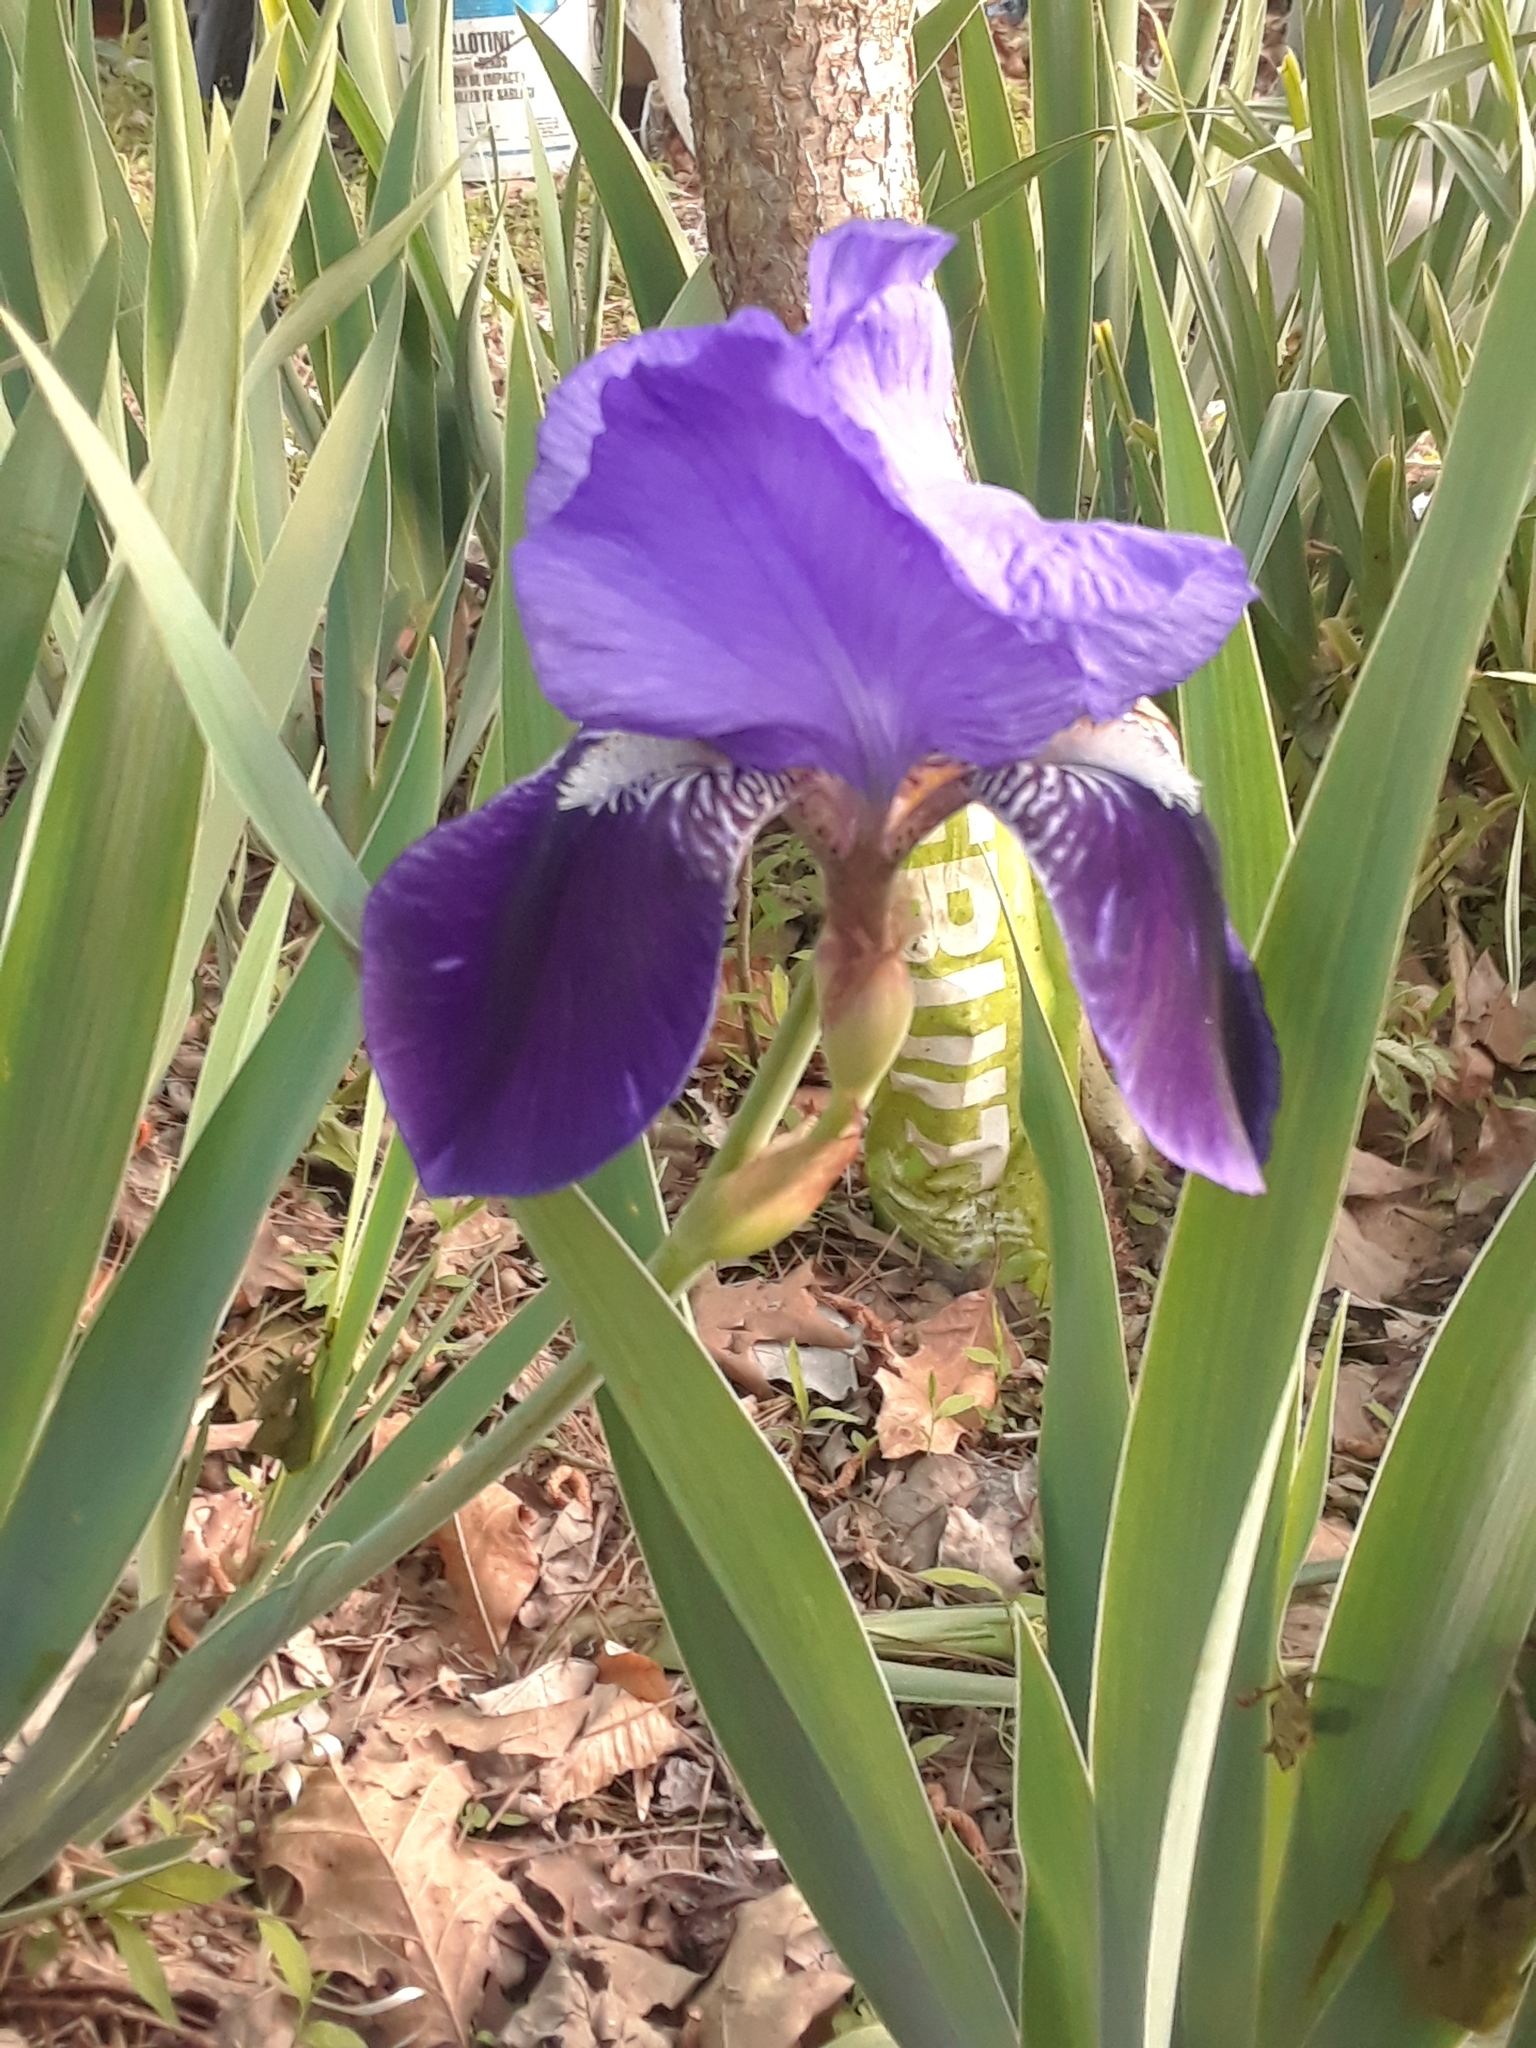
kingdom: Plantae
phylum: Tracheophyta
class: Liliopsida
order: Asparagales
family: Iridaceae
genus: Iris
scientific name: Iris germanica
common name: German iris
